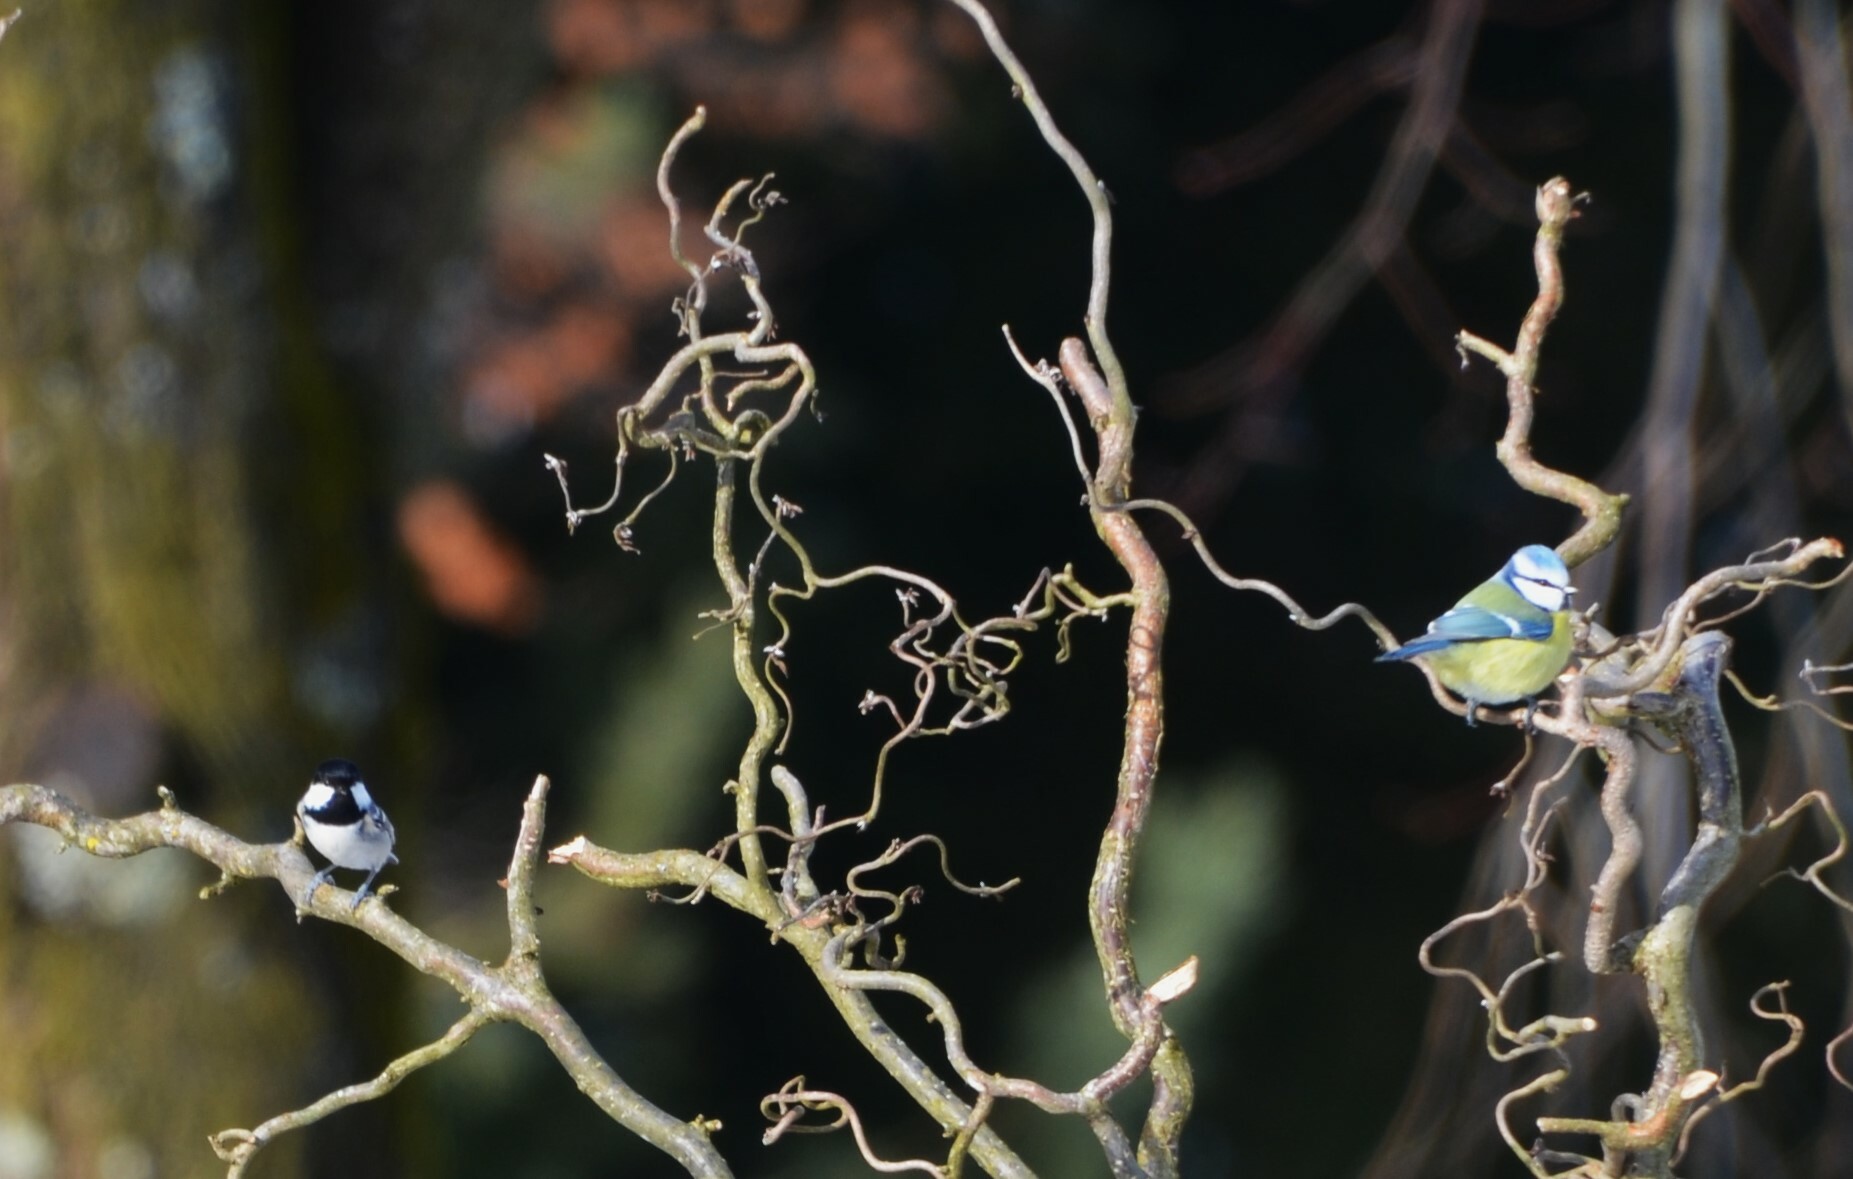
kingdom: Animalia
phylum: Chordata
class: Aves
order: Passeriformes
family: Paridae
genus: Periparus
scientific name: Periparus ater
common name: Coal tit
